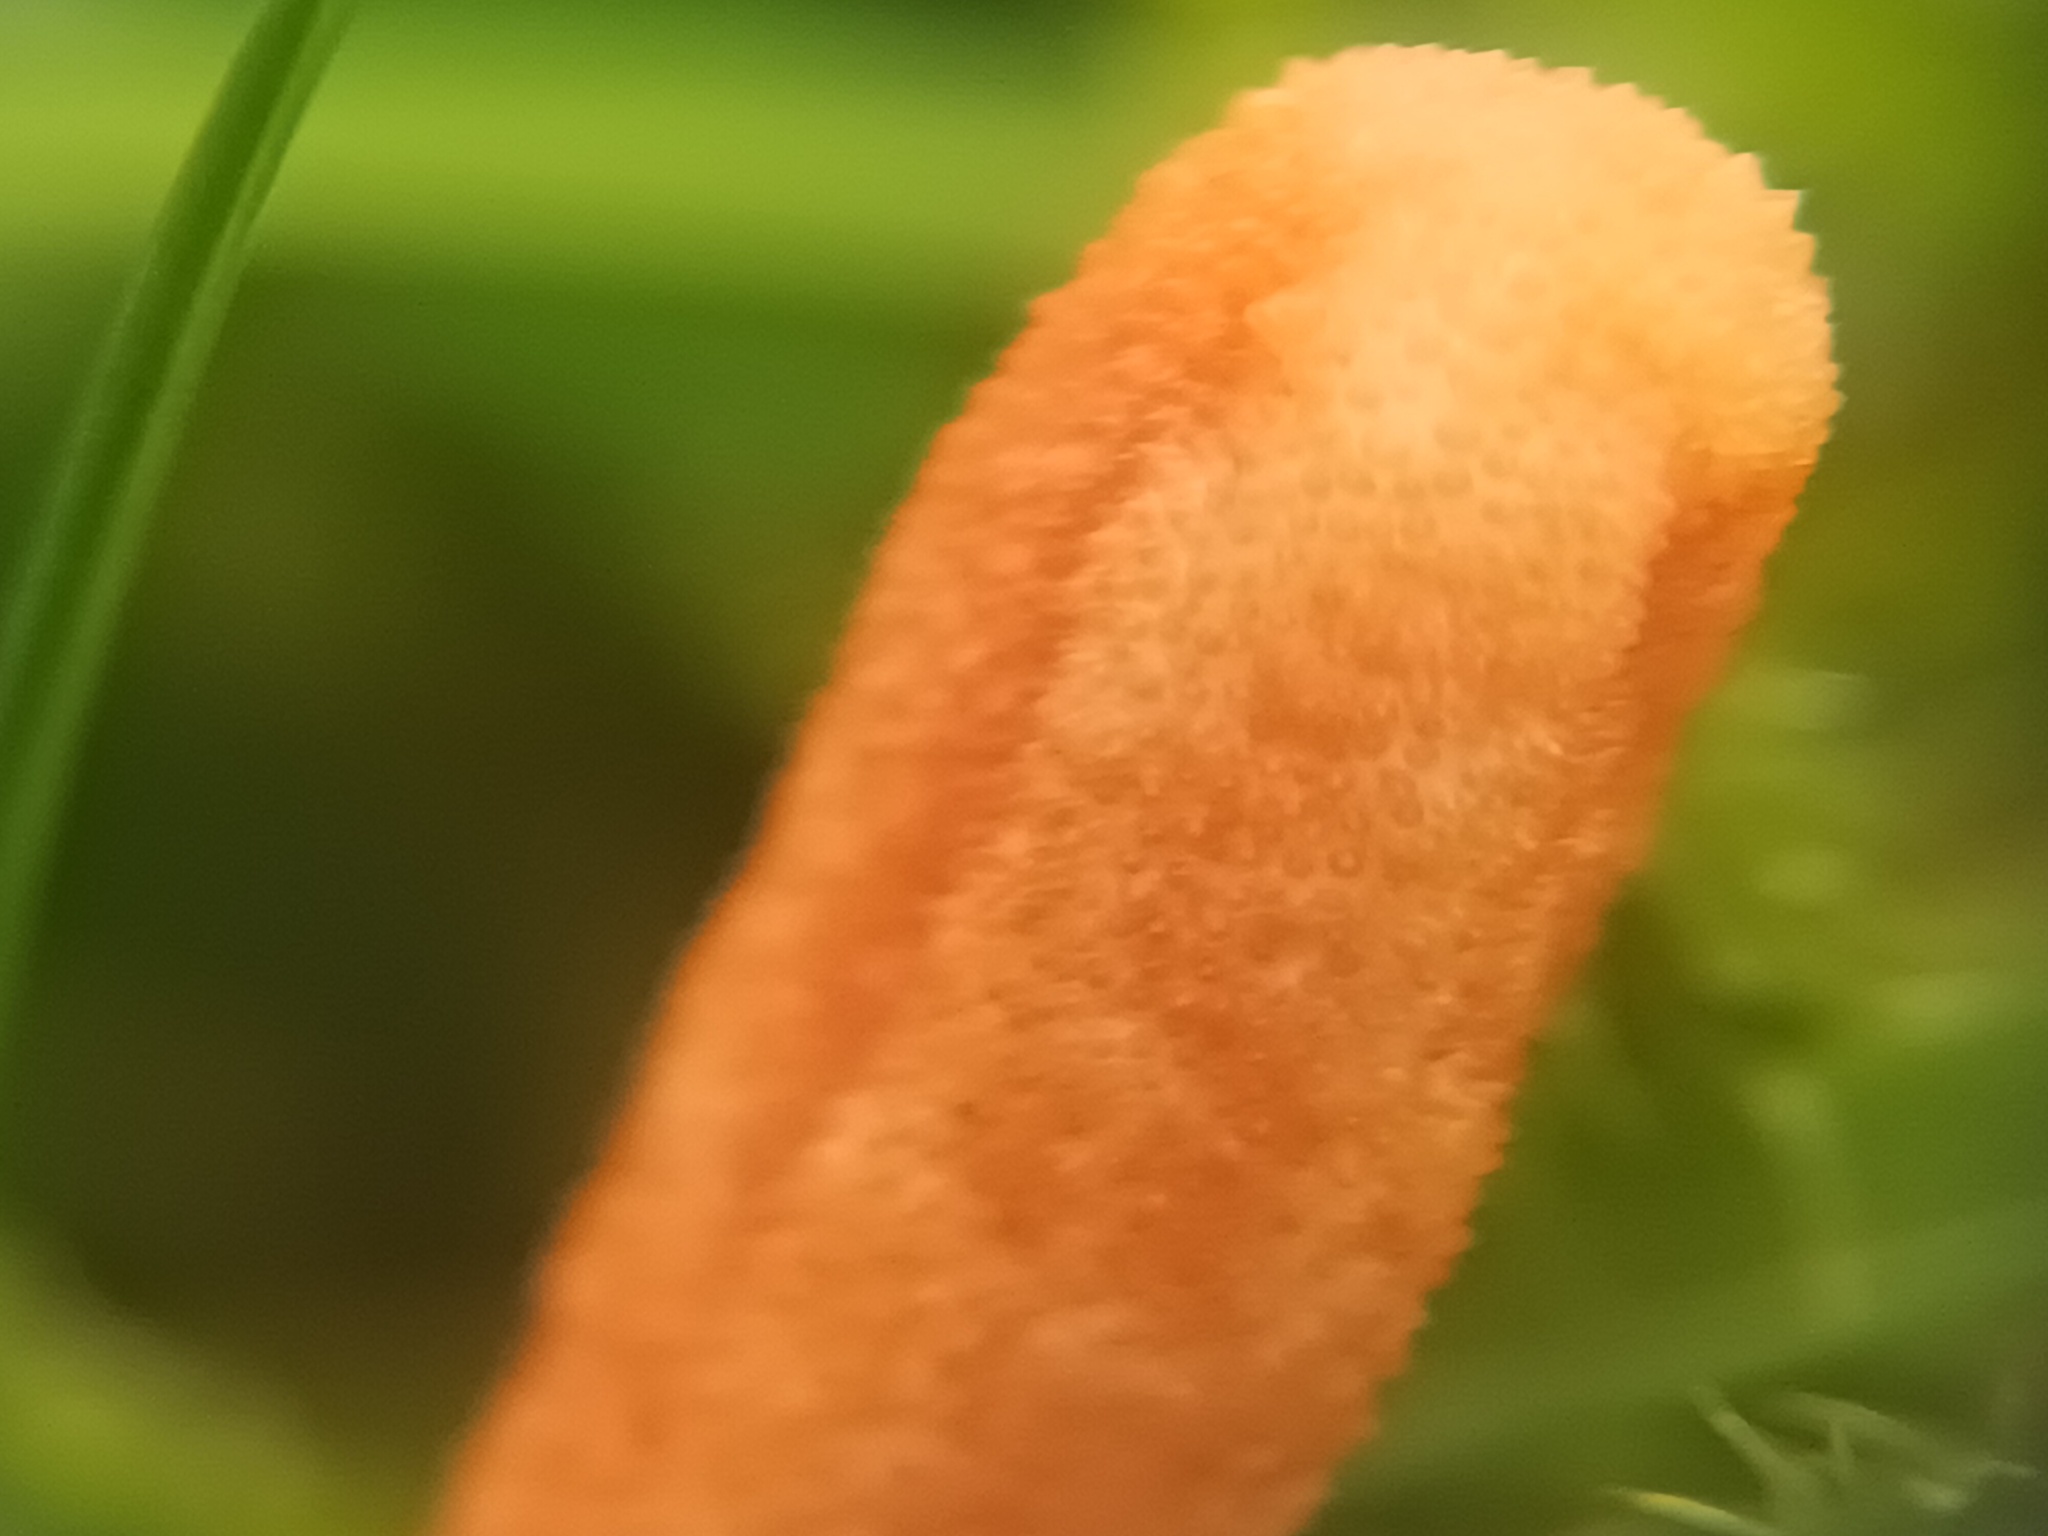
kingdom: Fungi
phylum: Ascomycota
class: Sordariomycetes
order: Hypocreales
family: Cordycipitaceae
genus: Cordyceps
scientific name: Cordyceps militaris
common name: Scarlet caterpillar fungus
